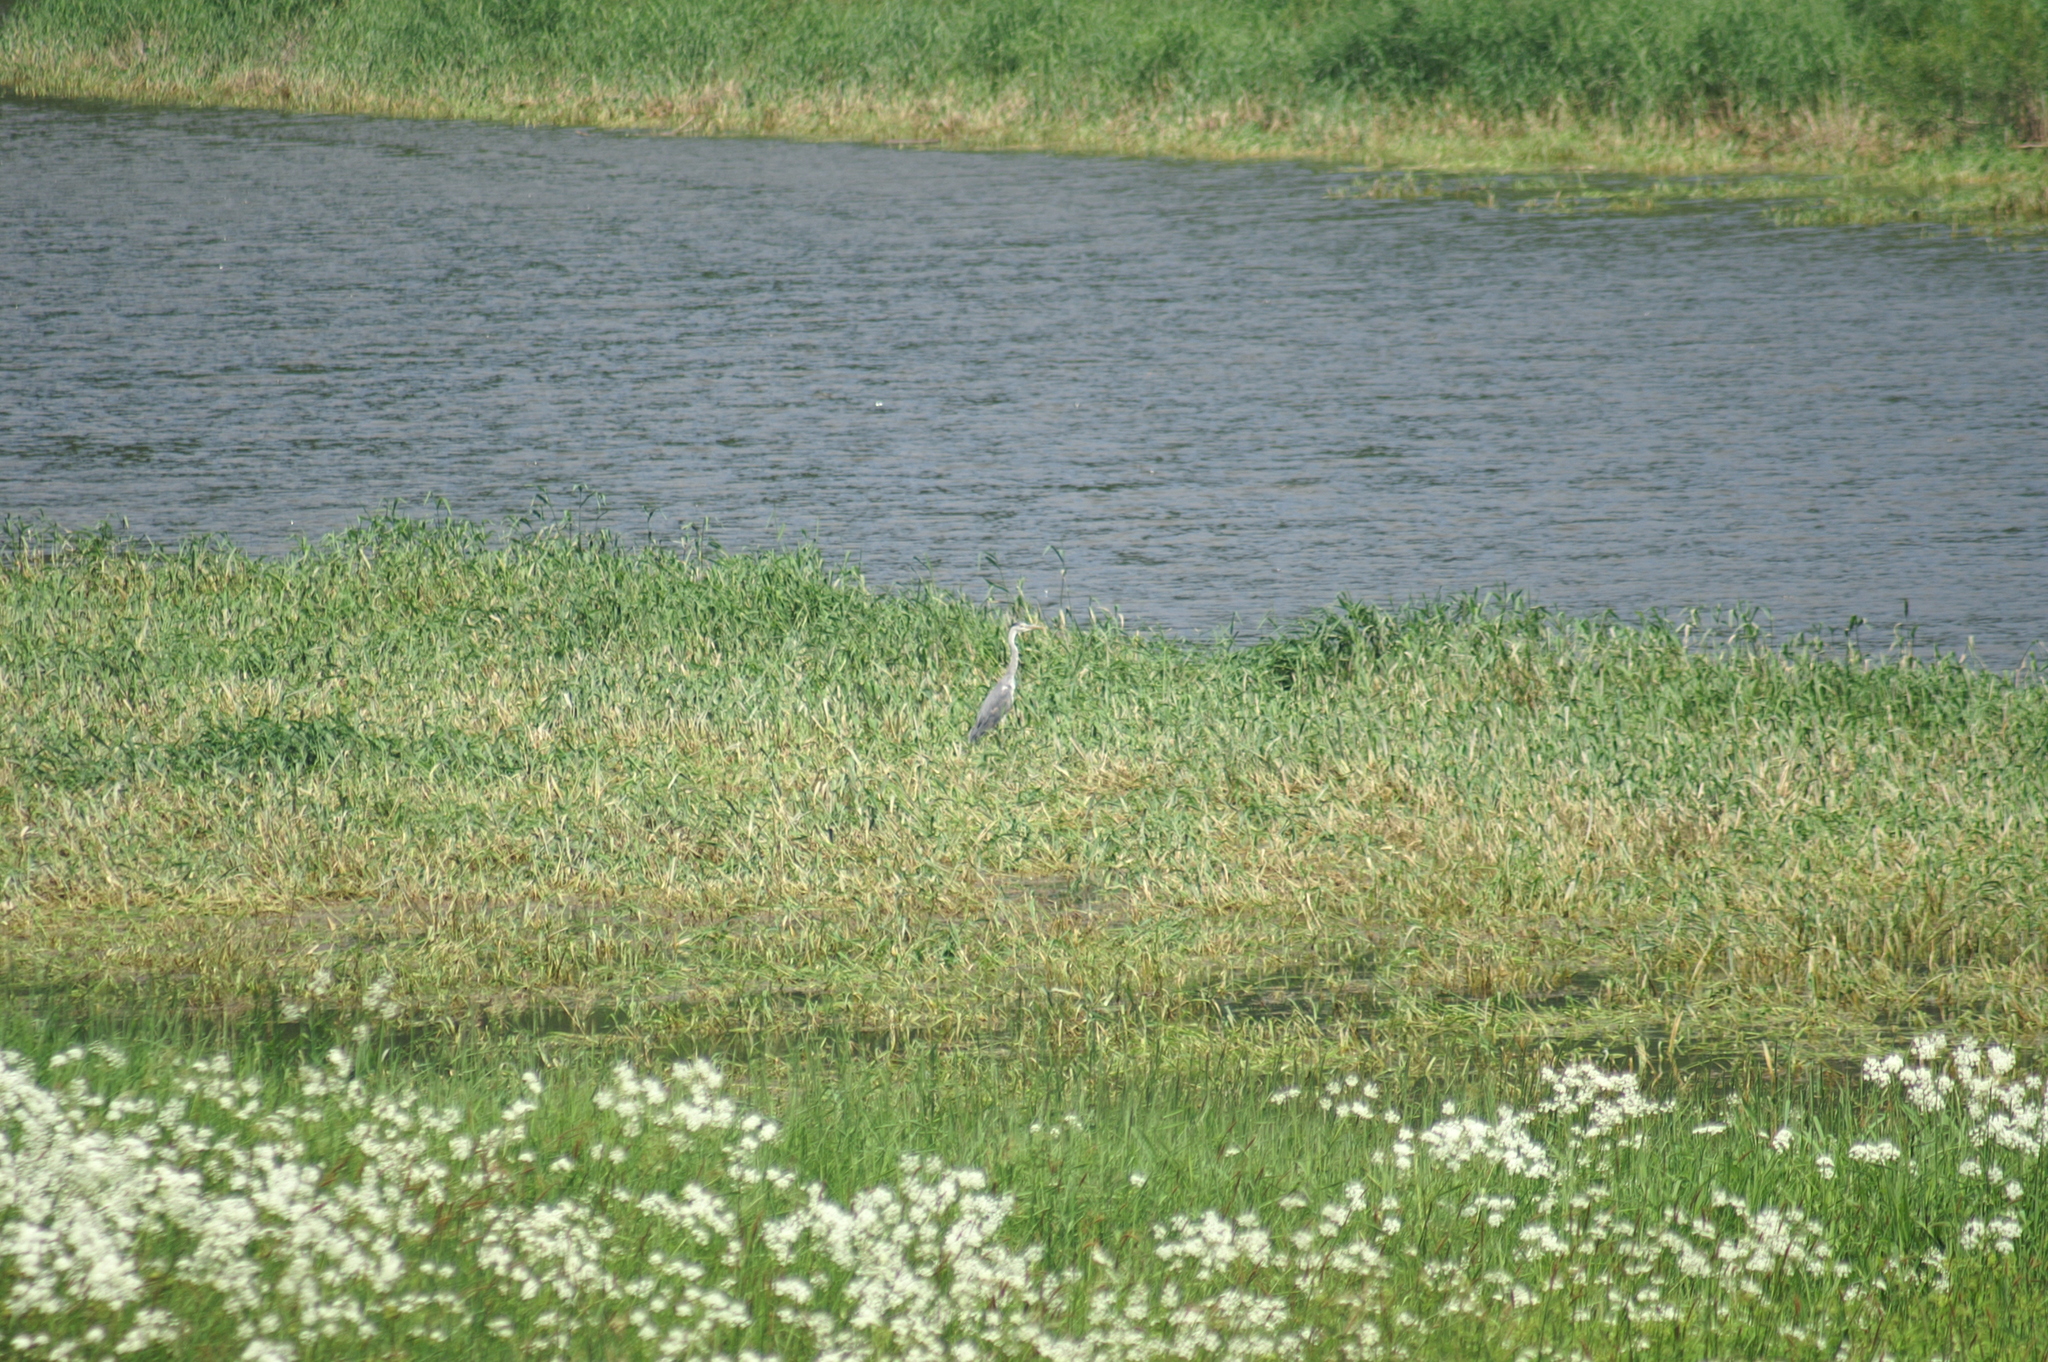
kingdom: Animalia
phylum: Chordata
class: Aves
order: Pelecaniformes
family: Ardeidae
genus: Ardea
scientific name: Ardea cinerea
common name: Grey heron
